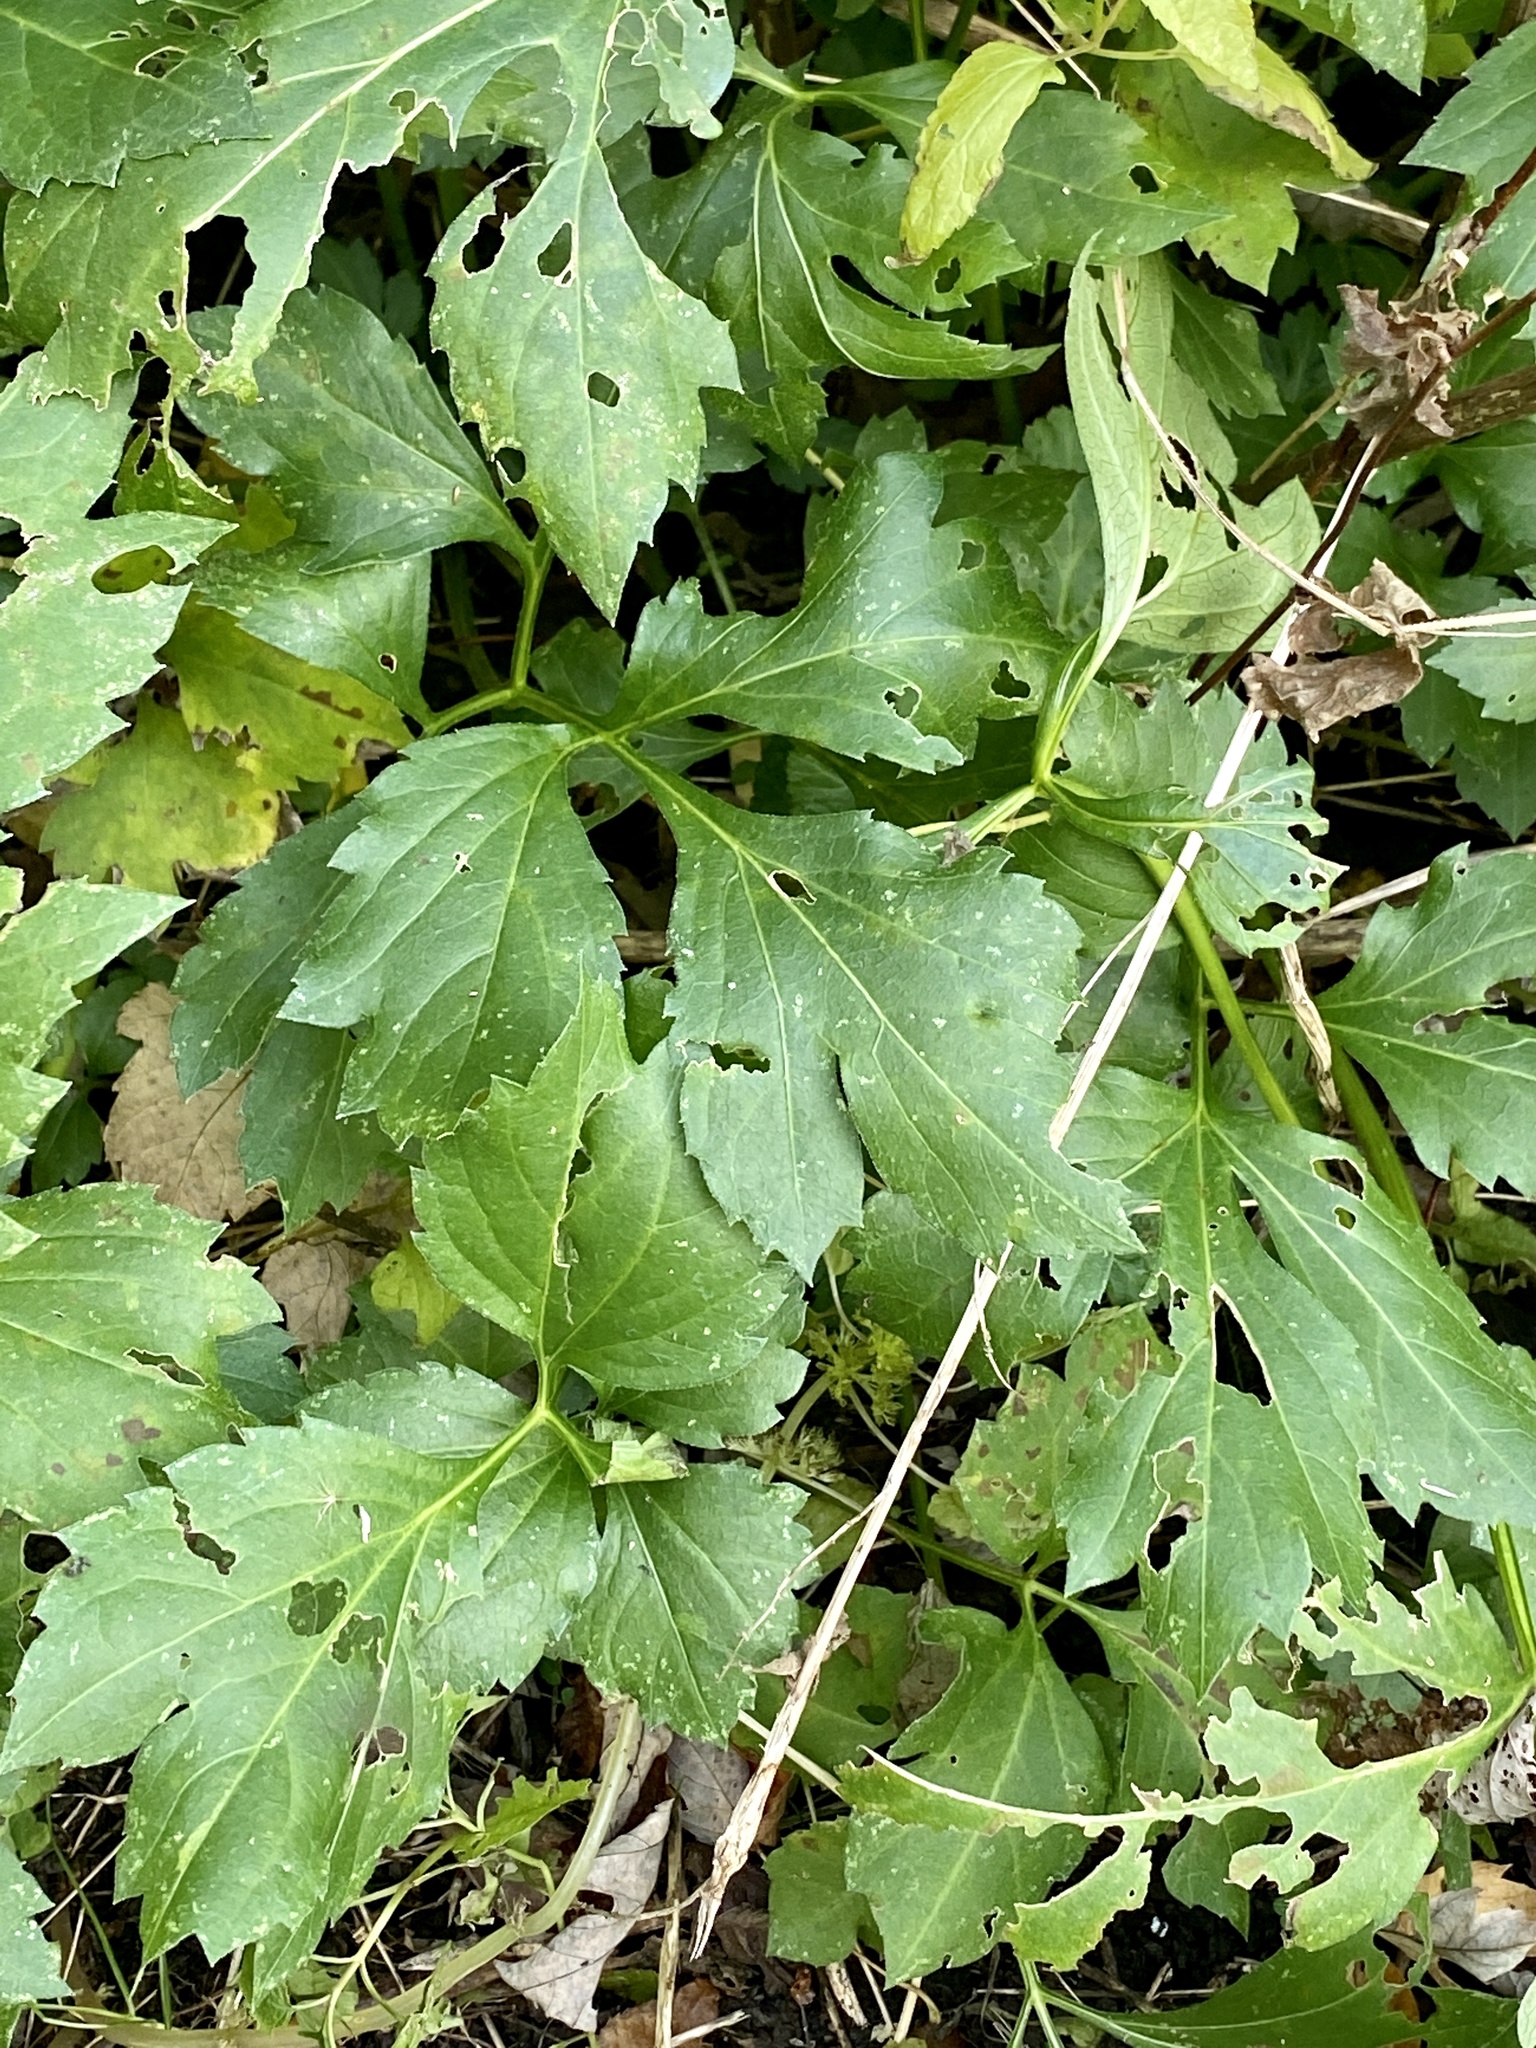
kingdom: Plantae
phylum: Tracheophyta
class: Magnoliopsida
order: Asterales
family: Asteraceae
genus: Rudbeckia
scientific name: Rudbeckia laciniata
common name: Coneflower
